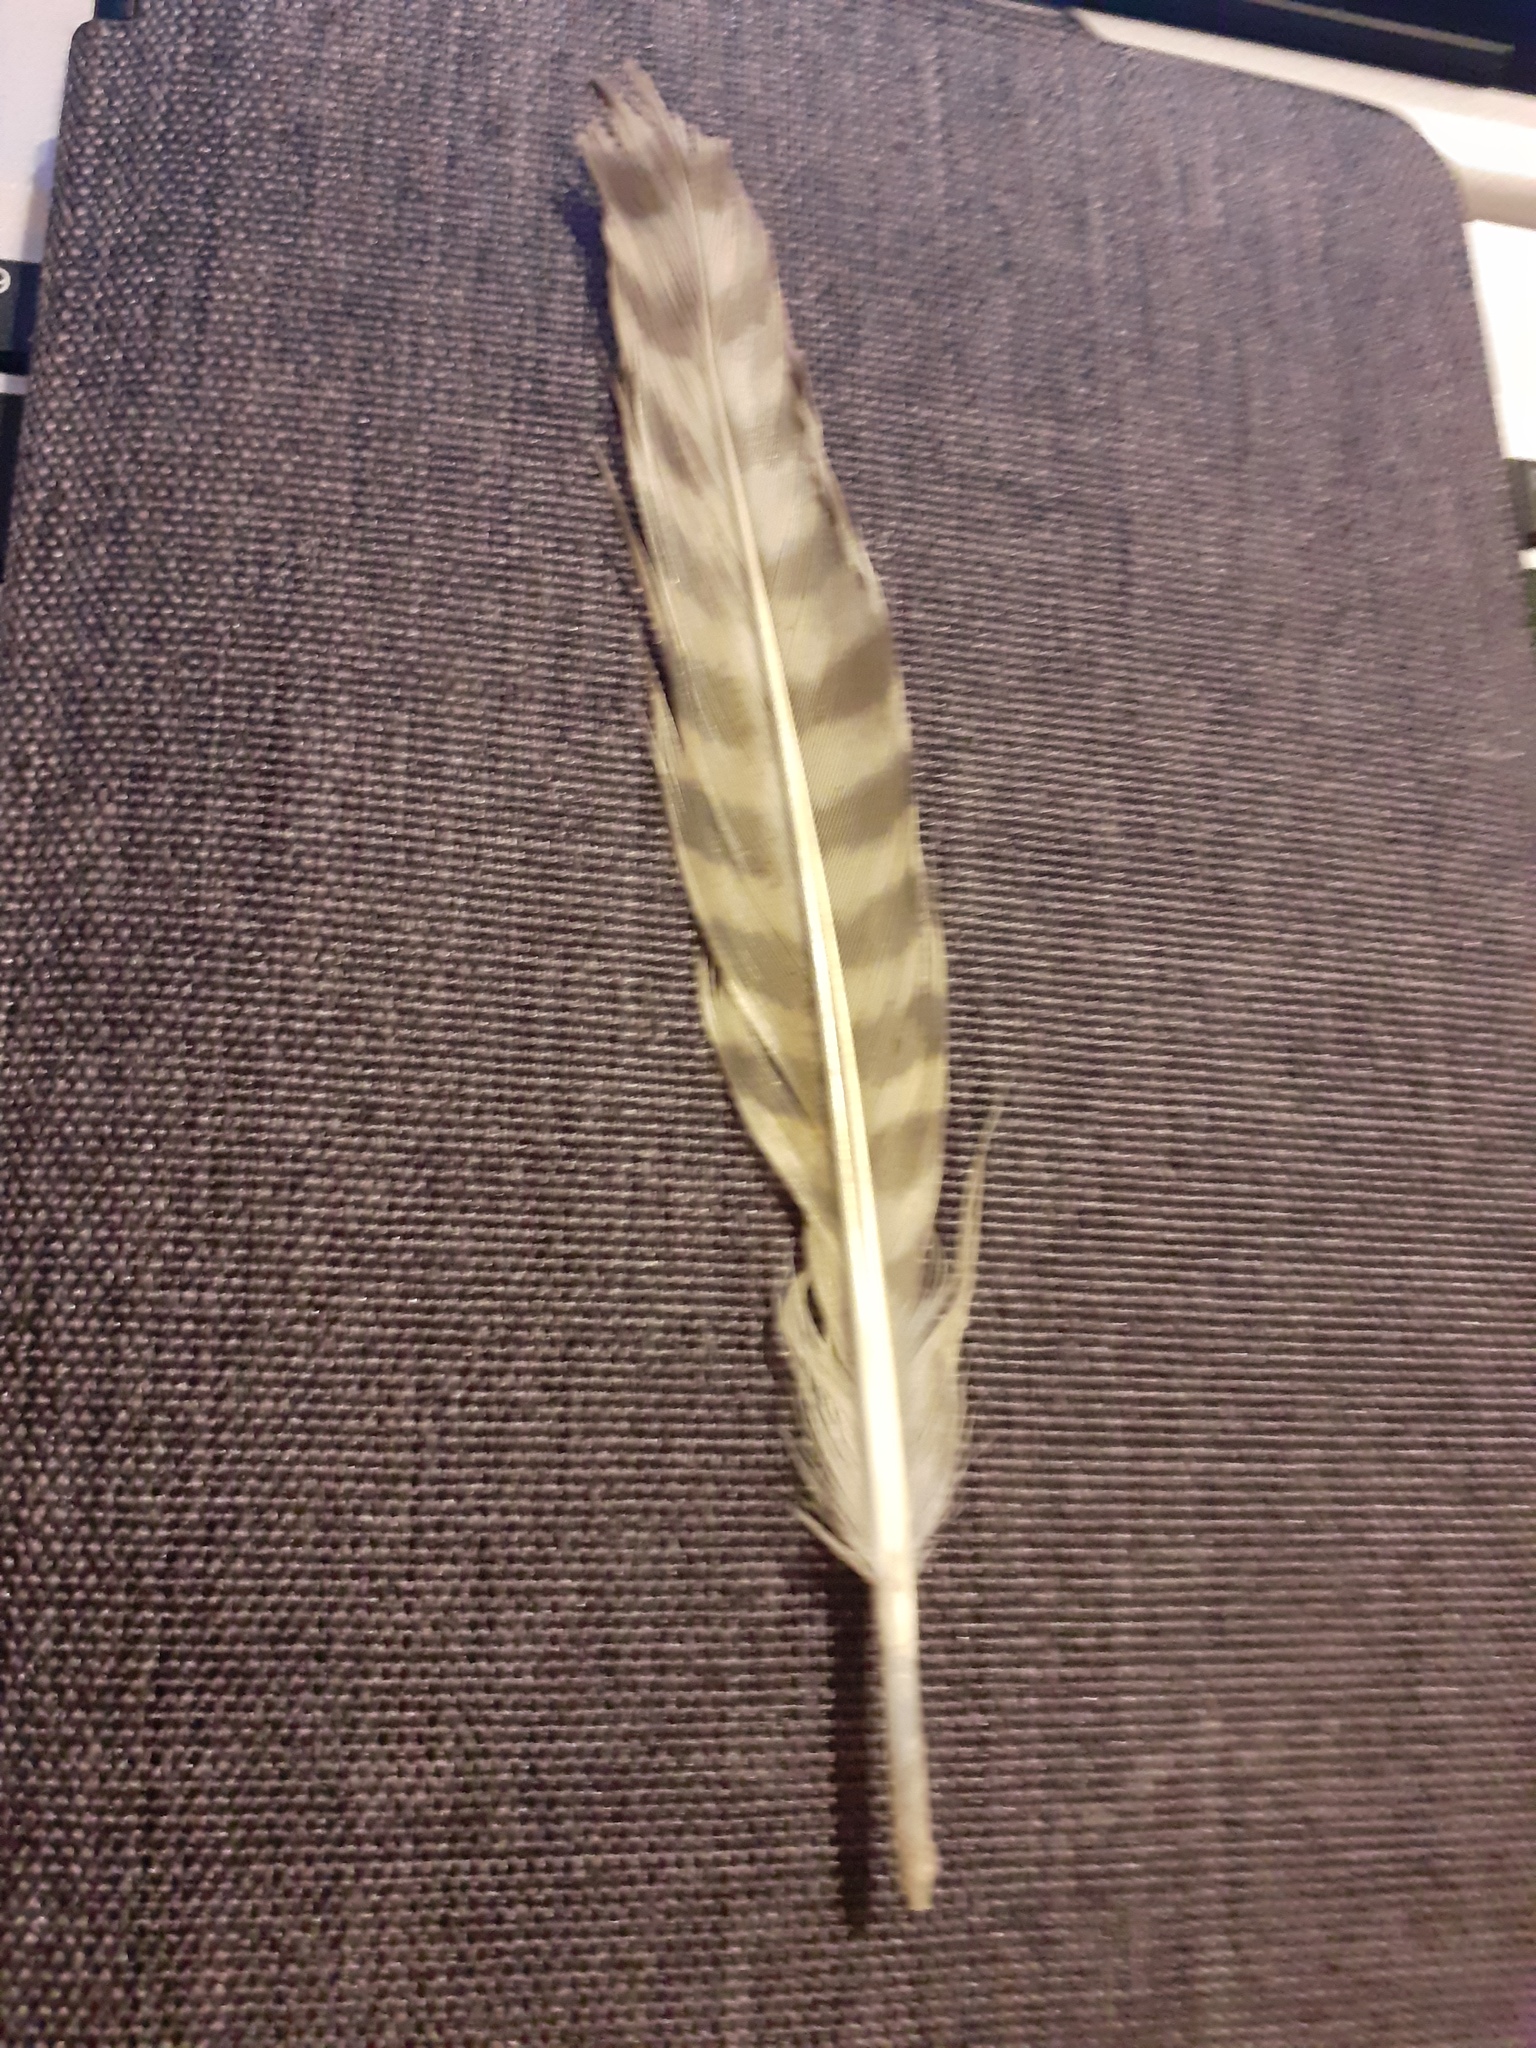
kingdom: Animalia
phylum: Chordata
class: Aves
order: Charadriiformes
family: Scolopacidae
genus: Numenius
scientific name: Numenius arquata
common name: Eurasian curlew
